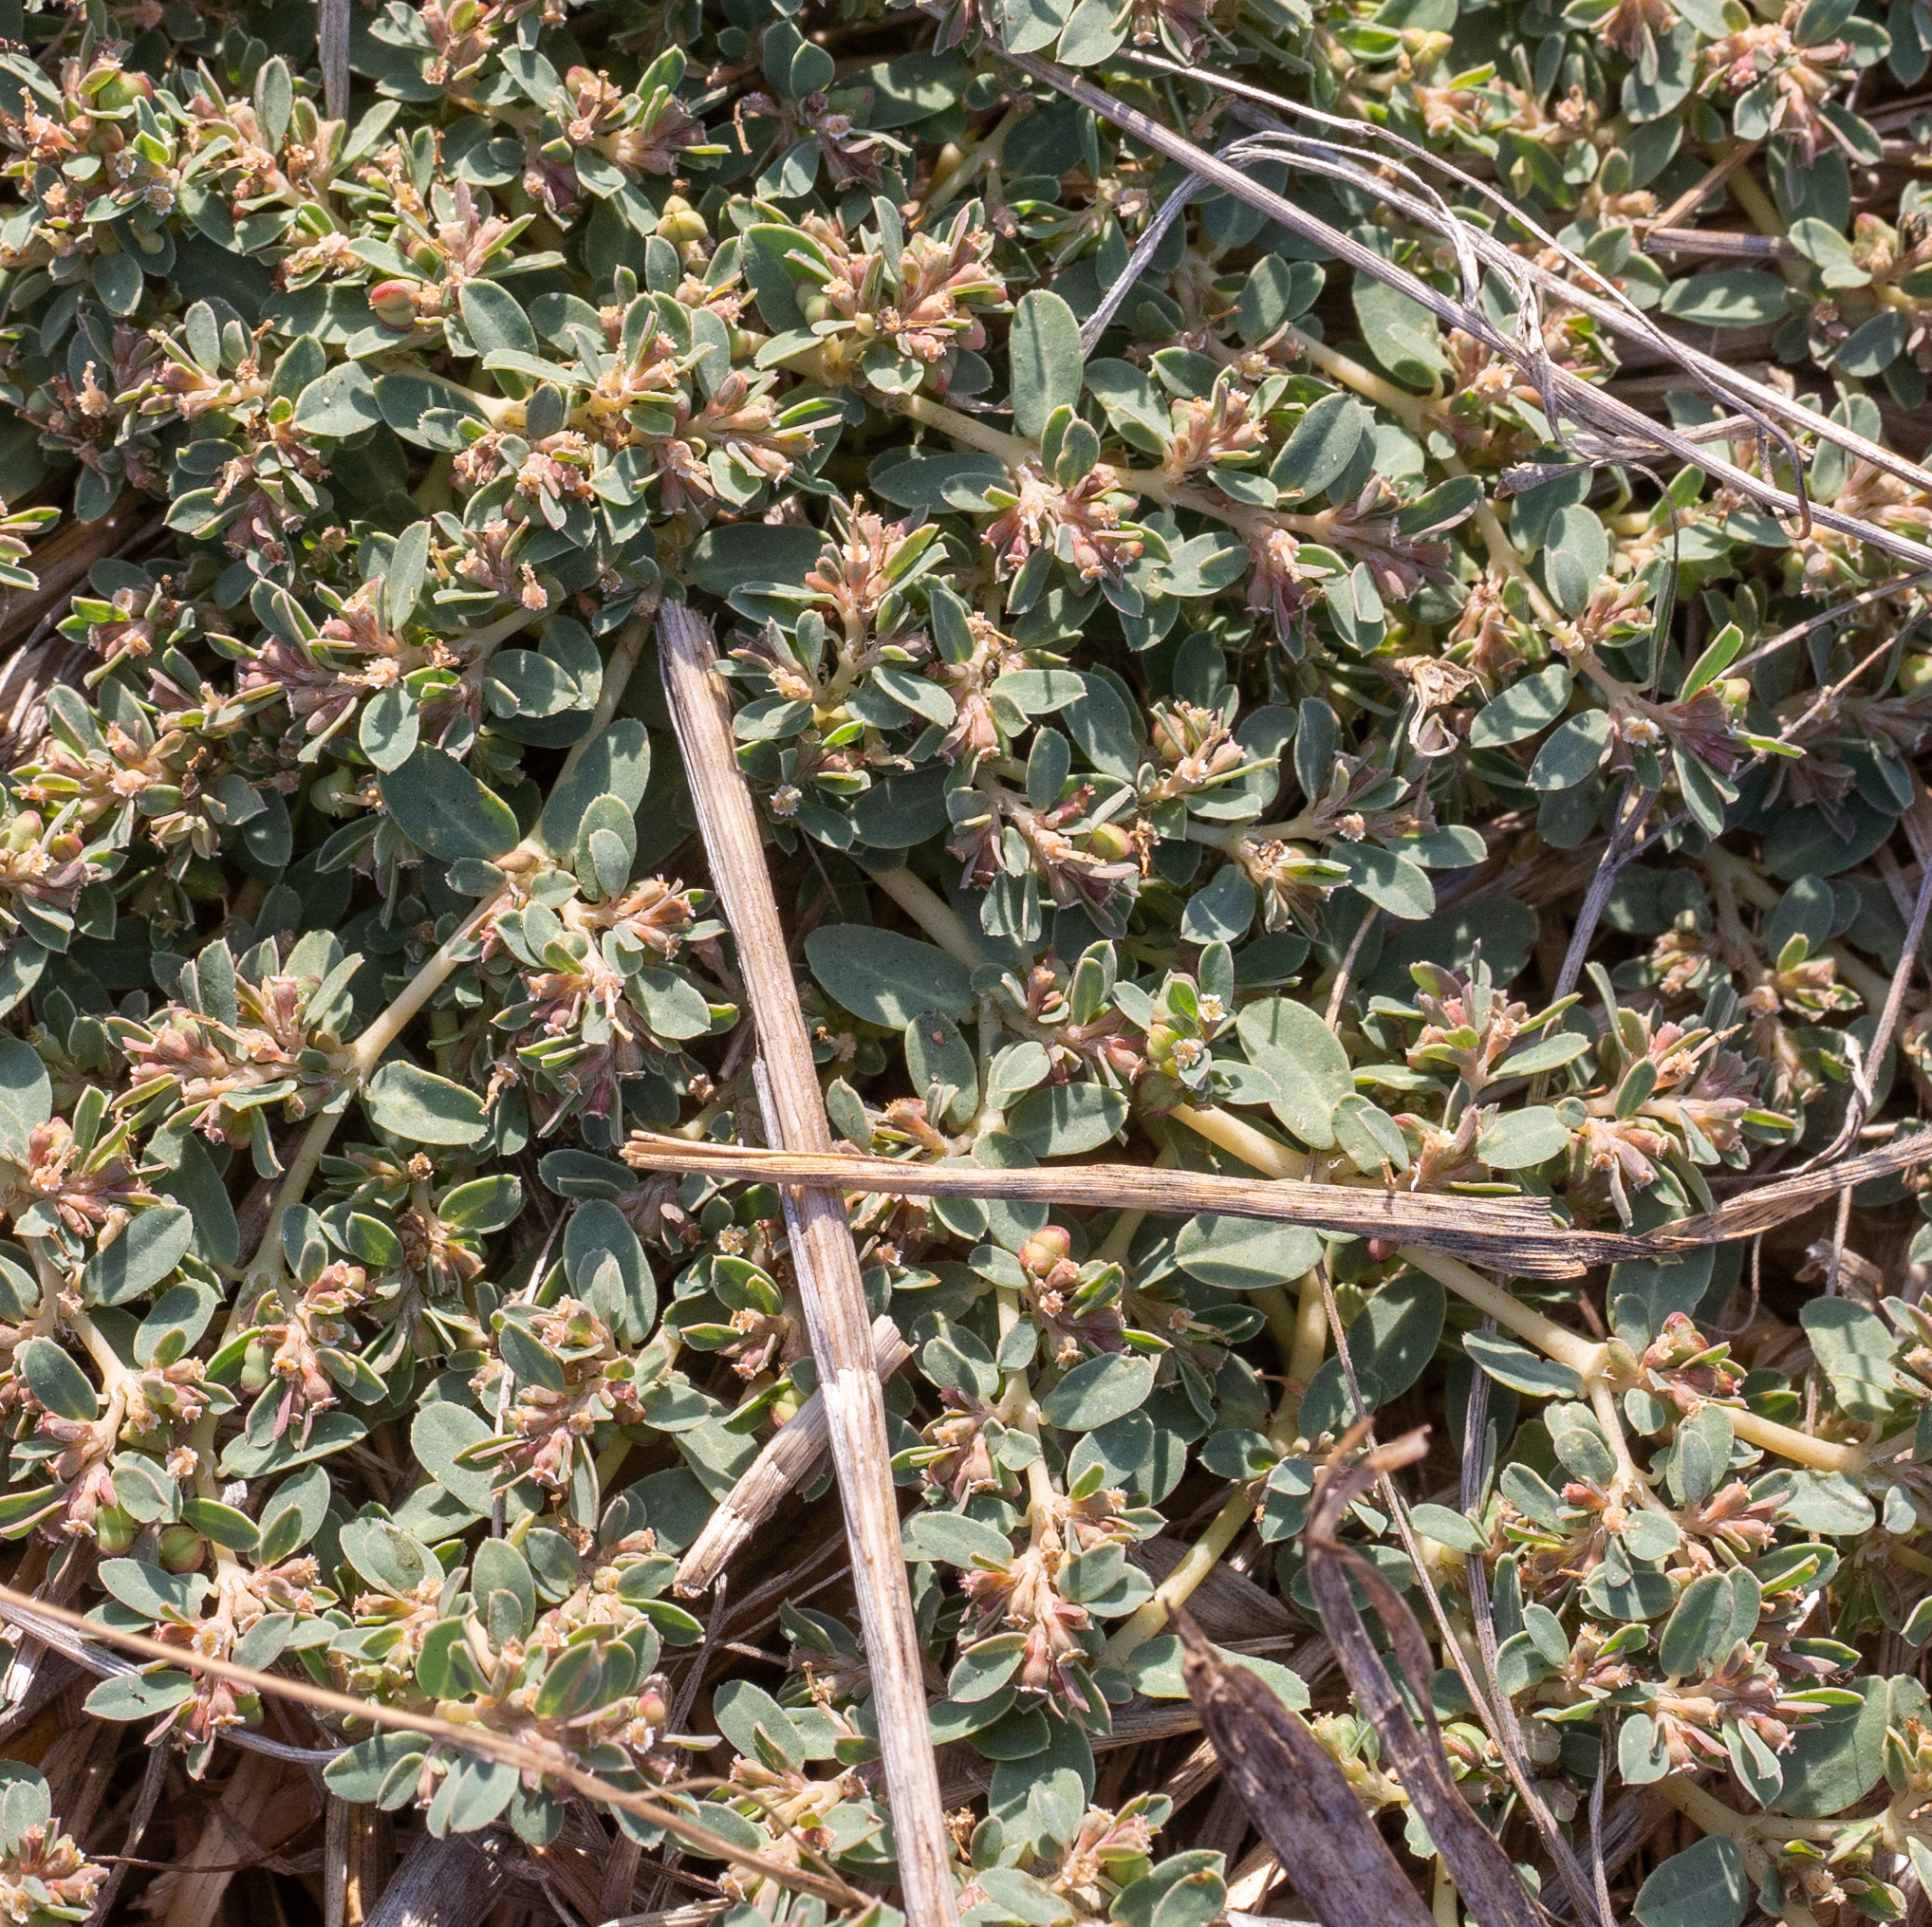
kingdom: Plantae
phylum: Tracheophyta
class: Magnoliopsida
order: Malpighiales
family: Euphorbiaceae
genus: Euphorbia
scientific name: Euphorbia serpillifolia
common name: Thyme-leaf spurge
